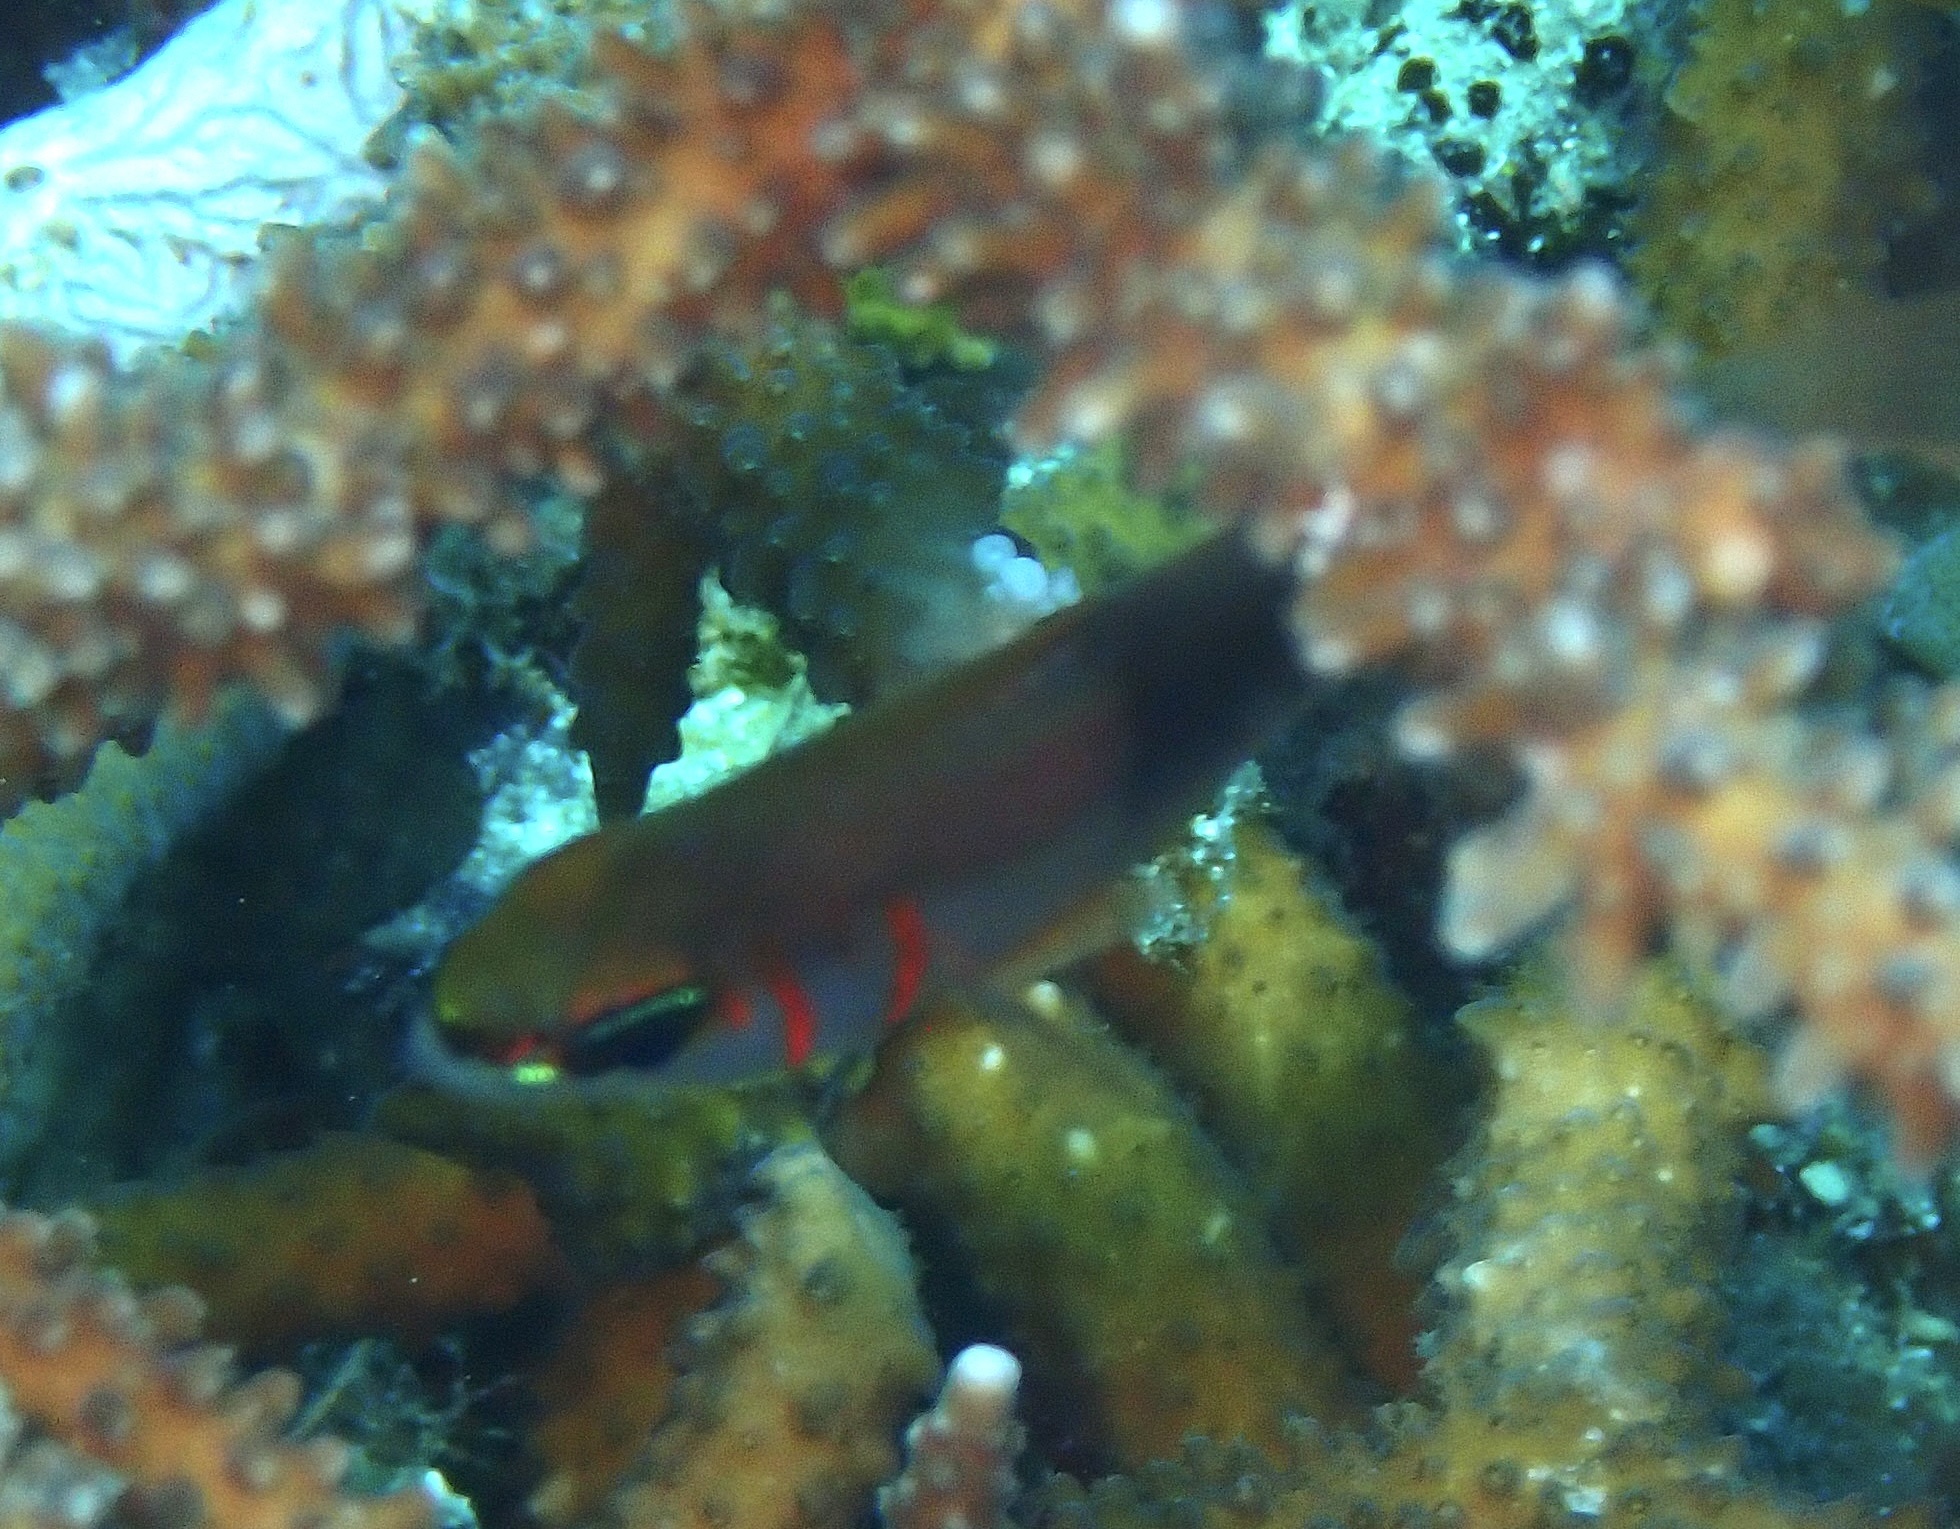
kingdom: Animalia
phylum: Chordata
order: Perciformes
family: Apogonidae
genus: Taeniamia
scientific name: Taeniamia zosterophora
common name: Girdled cardinalfish
